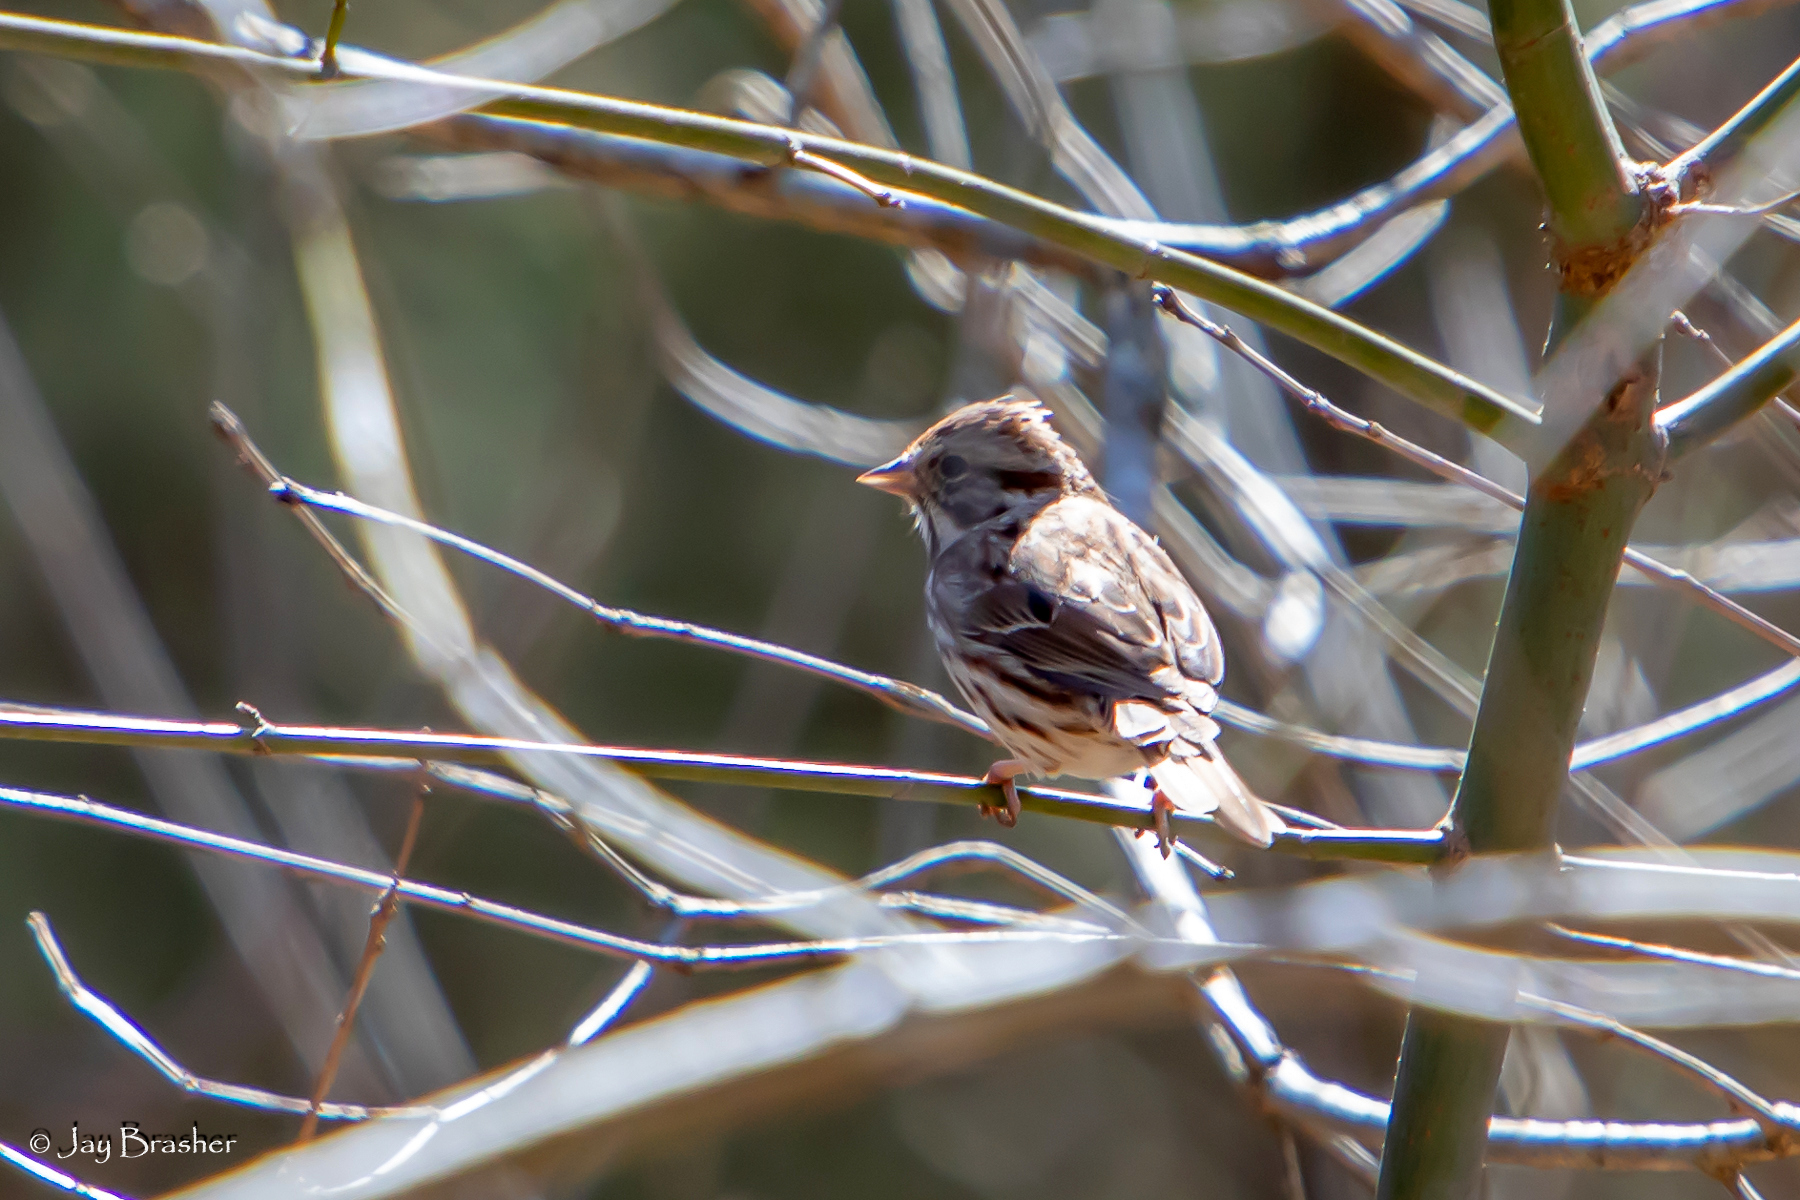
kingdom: Animalia
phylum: Chordata
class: Aves
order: Passeriformes
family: Passerellidae
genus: Melospiza
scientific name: Melospiza melodia
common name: Song sparrow
